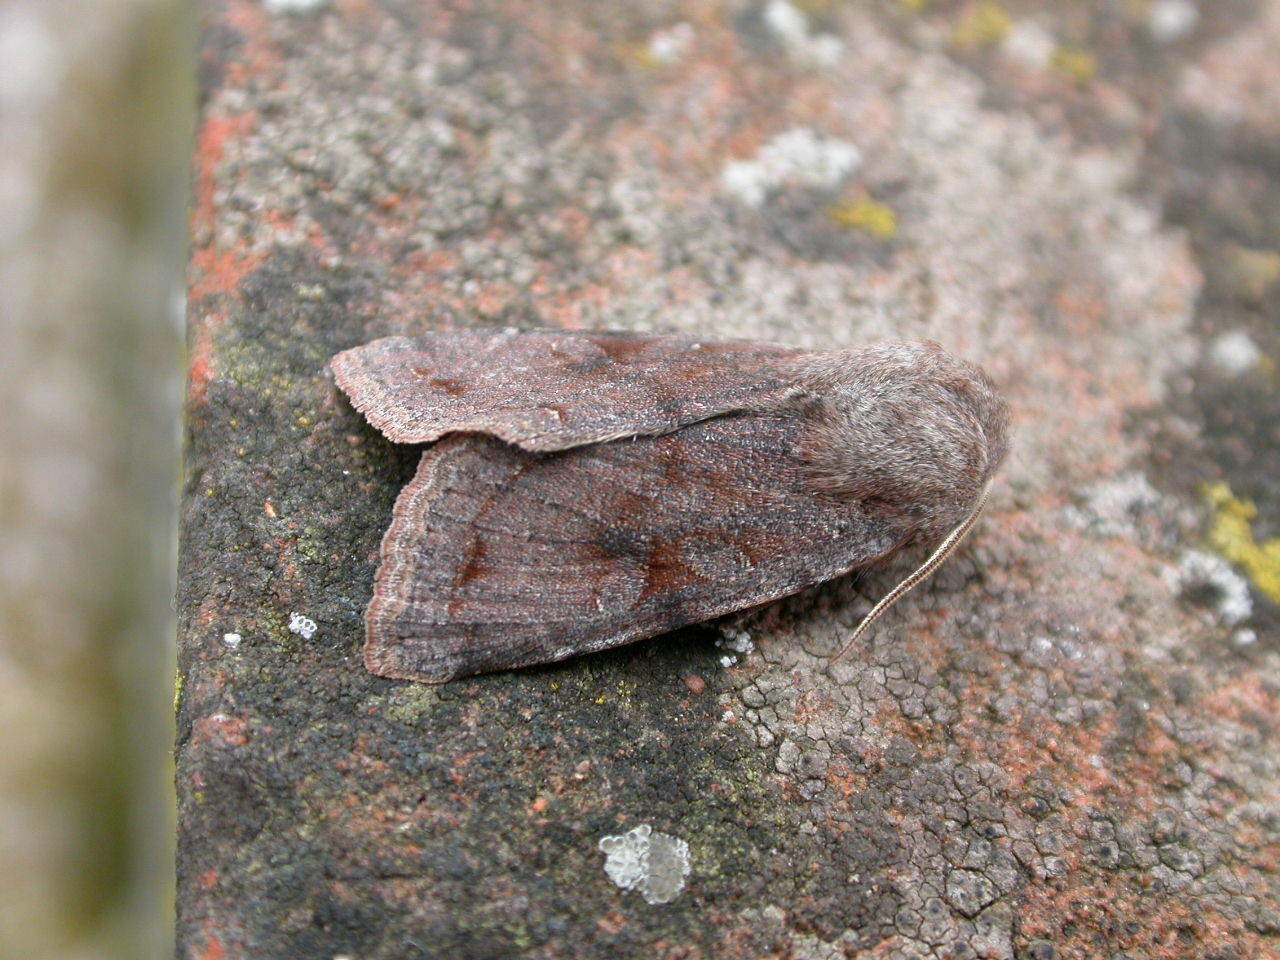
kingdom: Animalia
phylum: Arthropoda
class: Insecta
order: Lepidoptera
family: Noctuidae
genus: Orthosia
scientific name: Orthosia incerta
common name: Clouded drab
